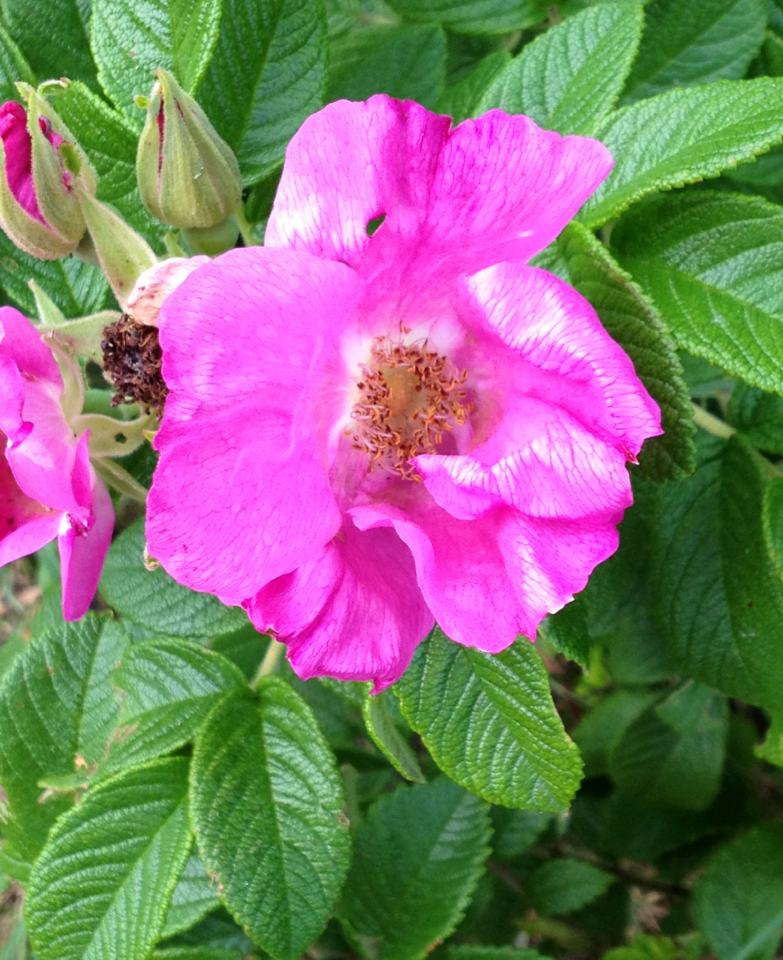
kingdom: Plantae
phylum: Tracheophyta
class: Magnoliopsida
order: Rosales
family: Rosaceae
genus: Rosa
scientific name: Rosa rugosa
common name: Japanese rose
